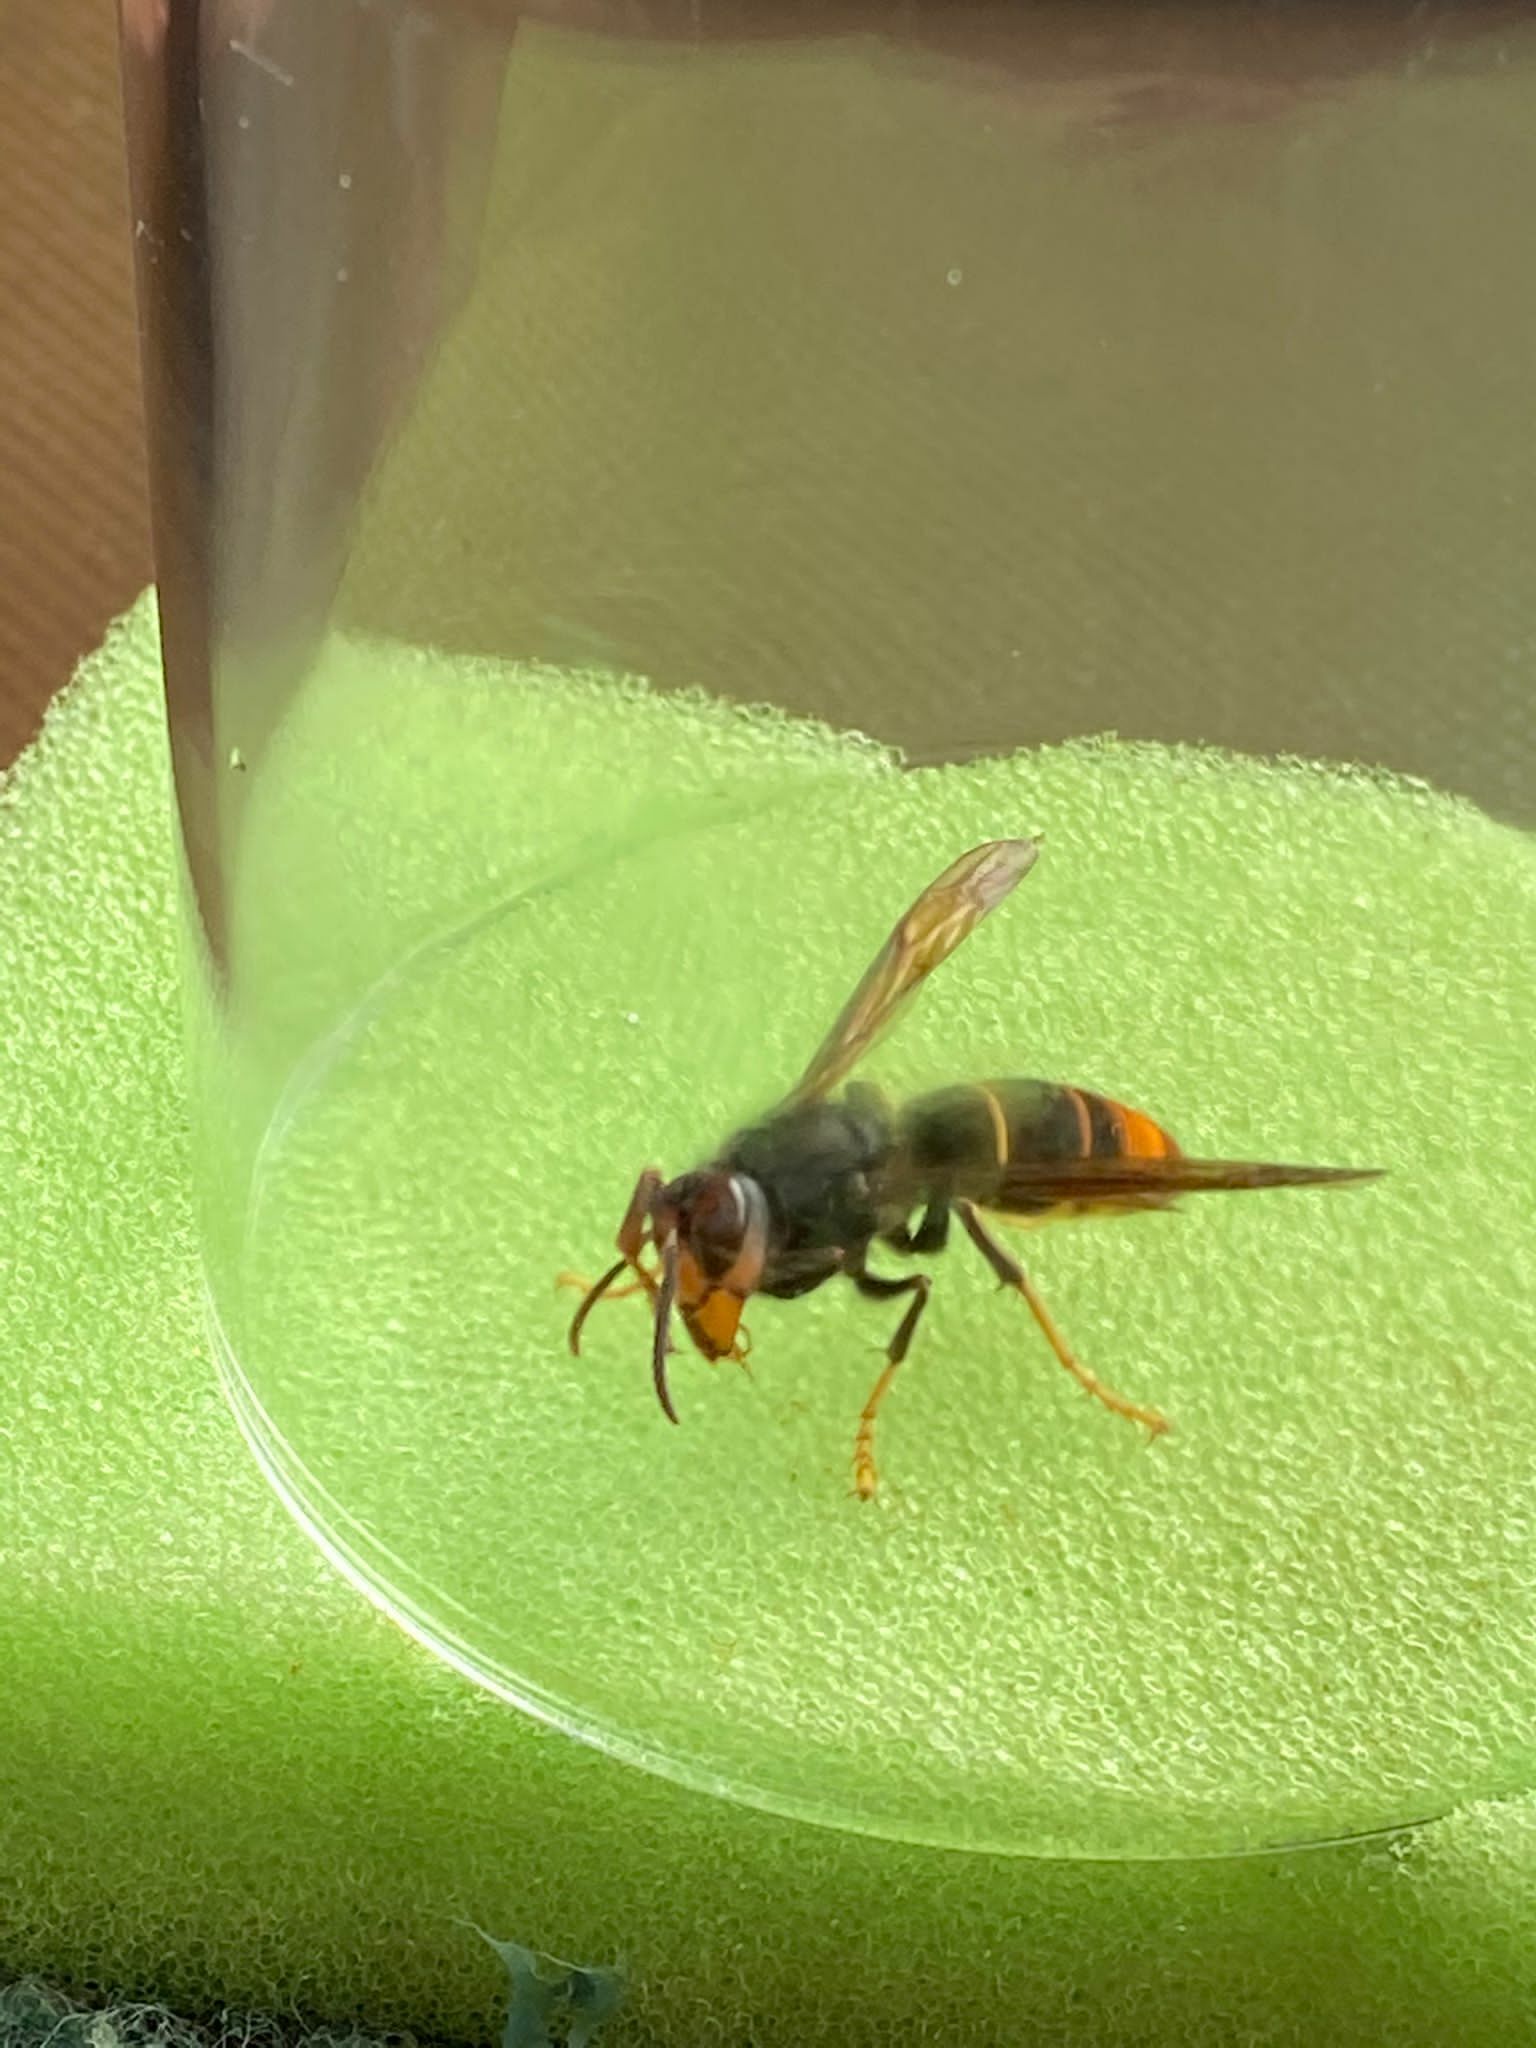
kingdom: Animalia
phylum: Arthropoda
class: Insecta
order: Hymenoptera
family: Vespidae
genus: Vespa
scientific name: Vespa velutina
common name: Asian hornet
